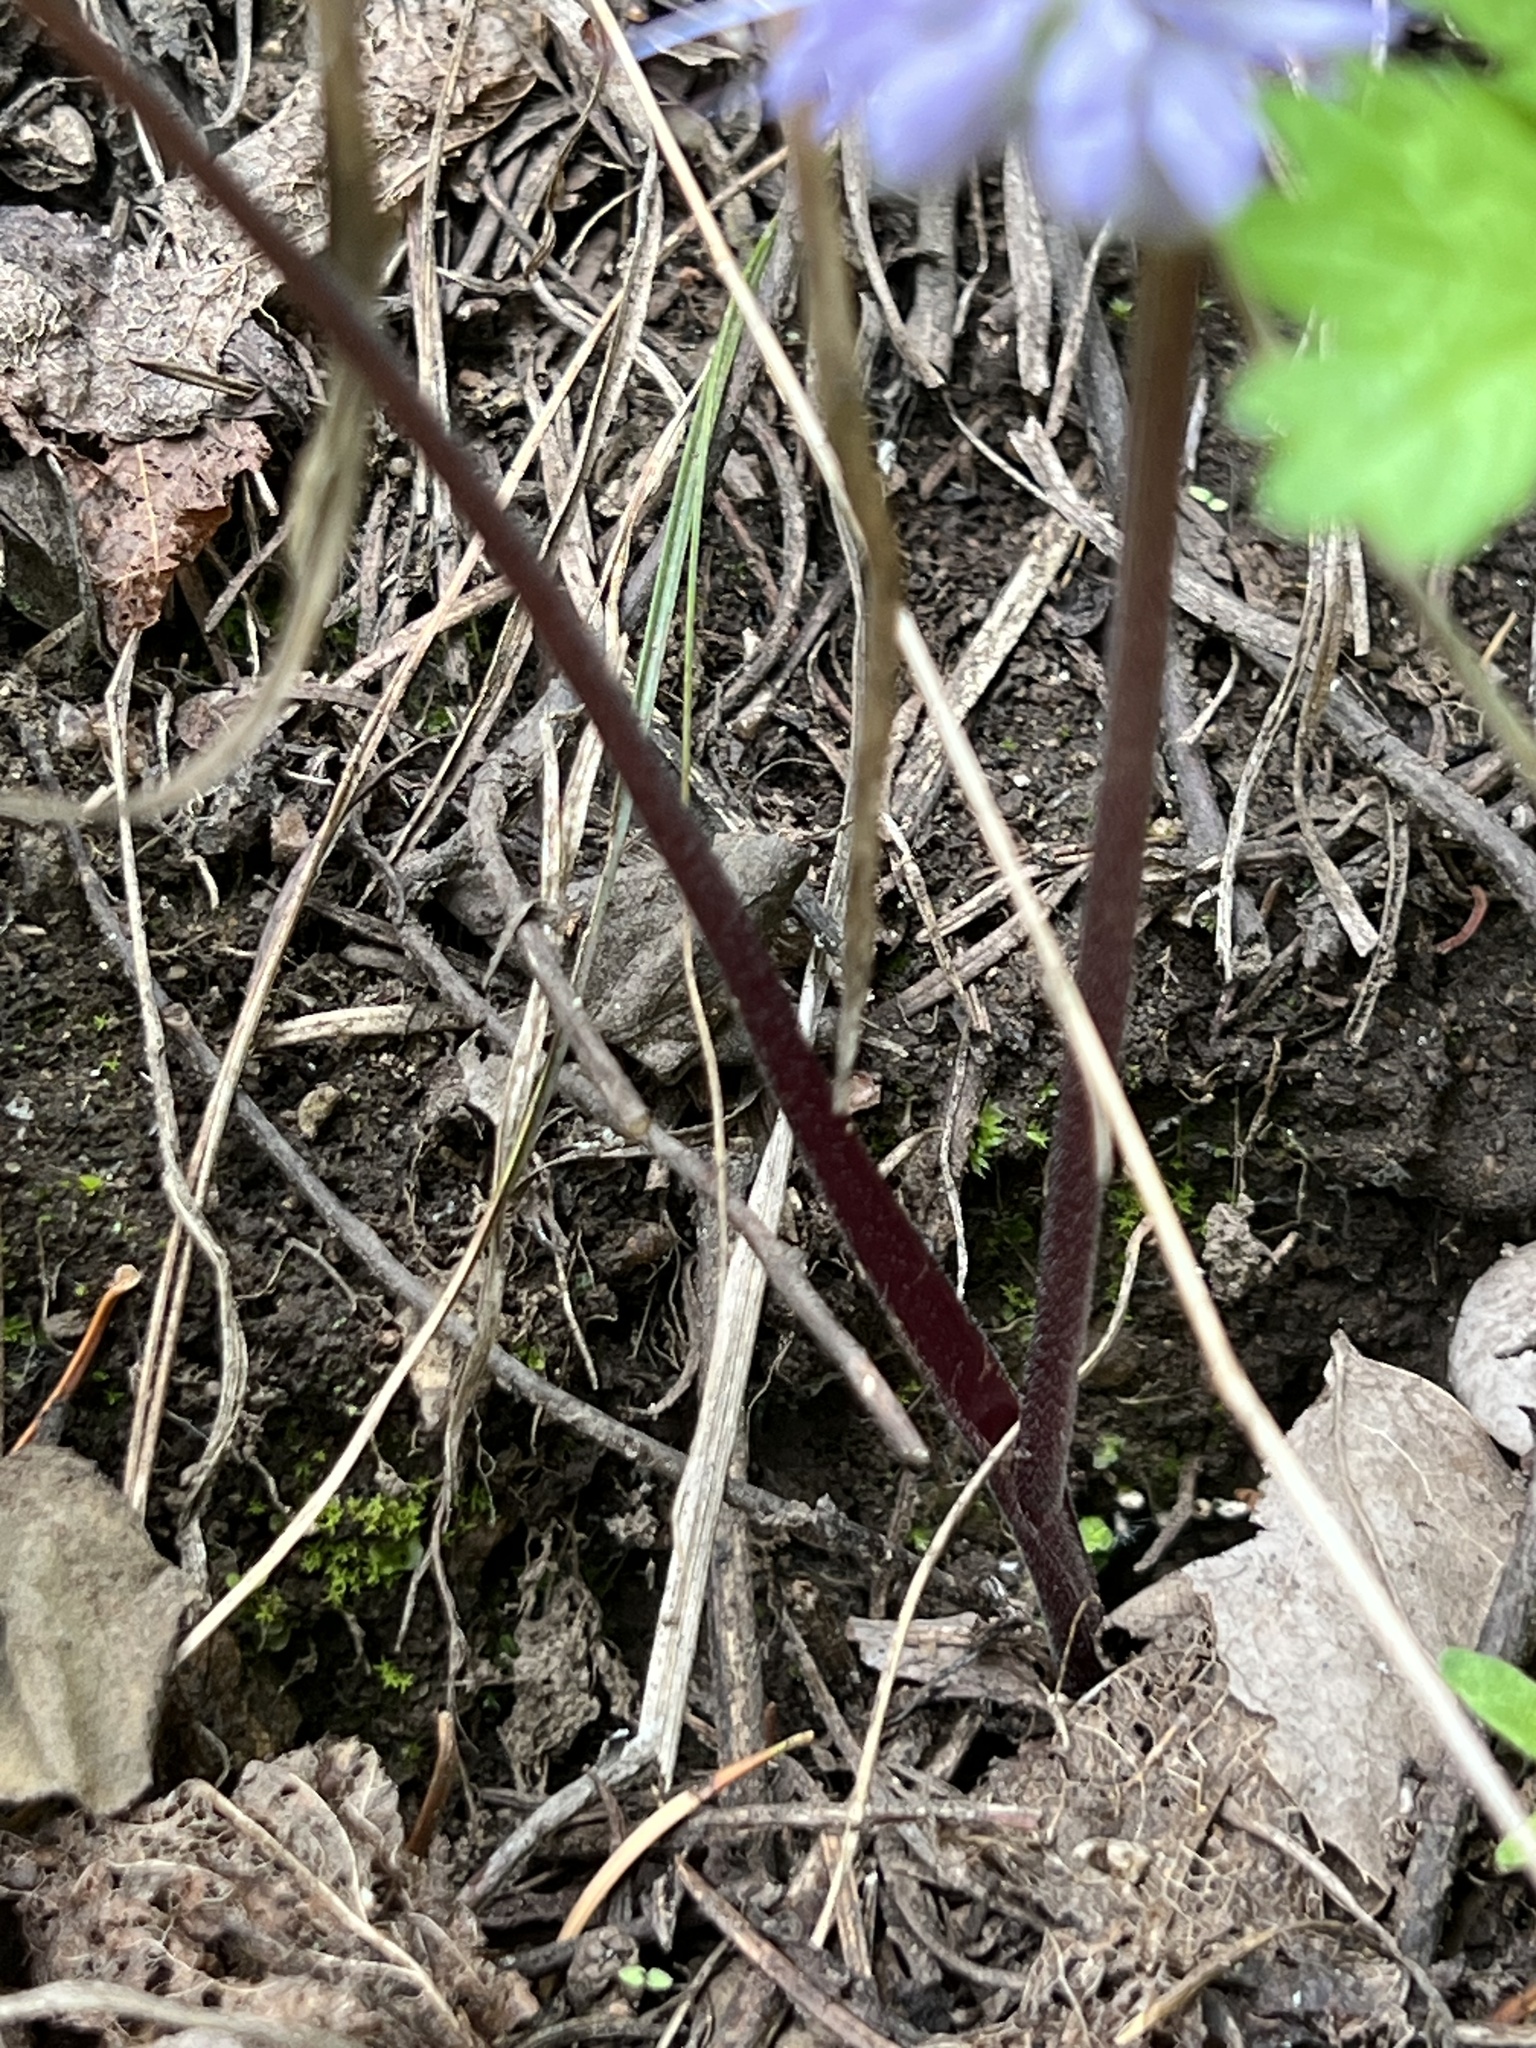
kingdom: Plantae
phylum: Tracheophyta
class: Magnoliopsida
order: Boraginales
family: Hydrophyllaceae
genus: Hydrophyllum
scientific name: Hydrophyllum capitatum
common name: Woollen-breeches
